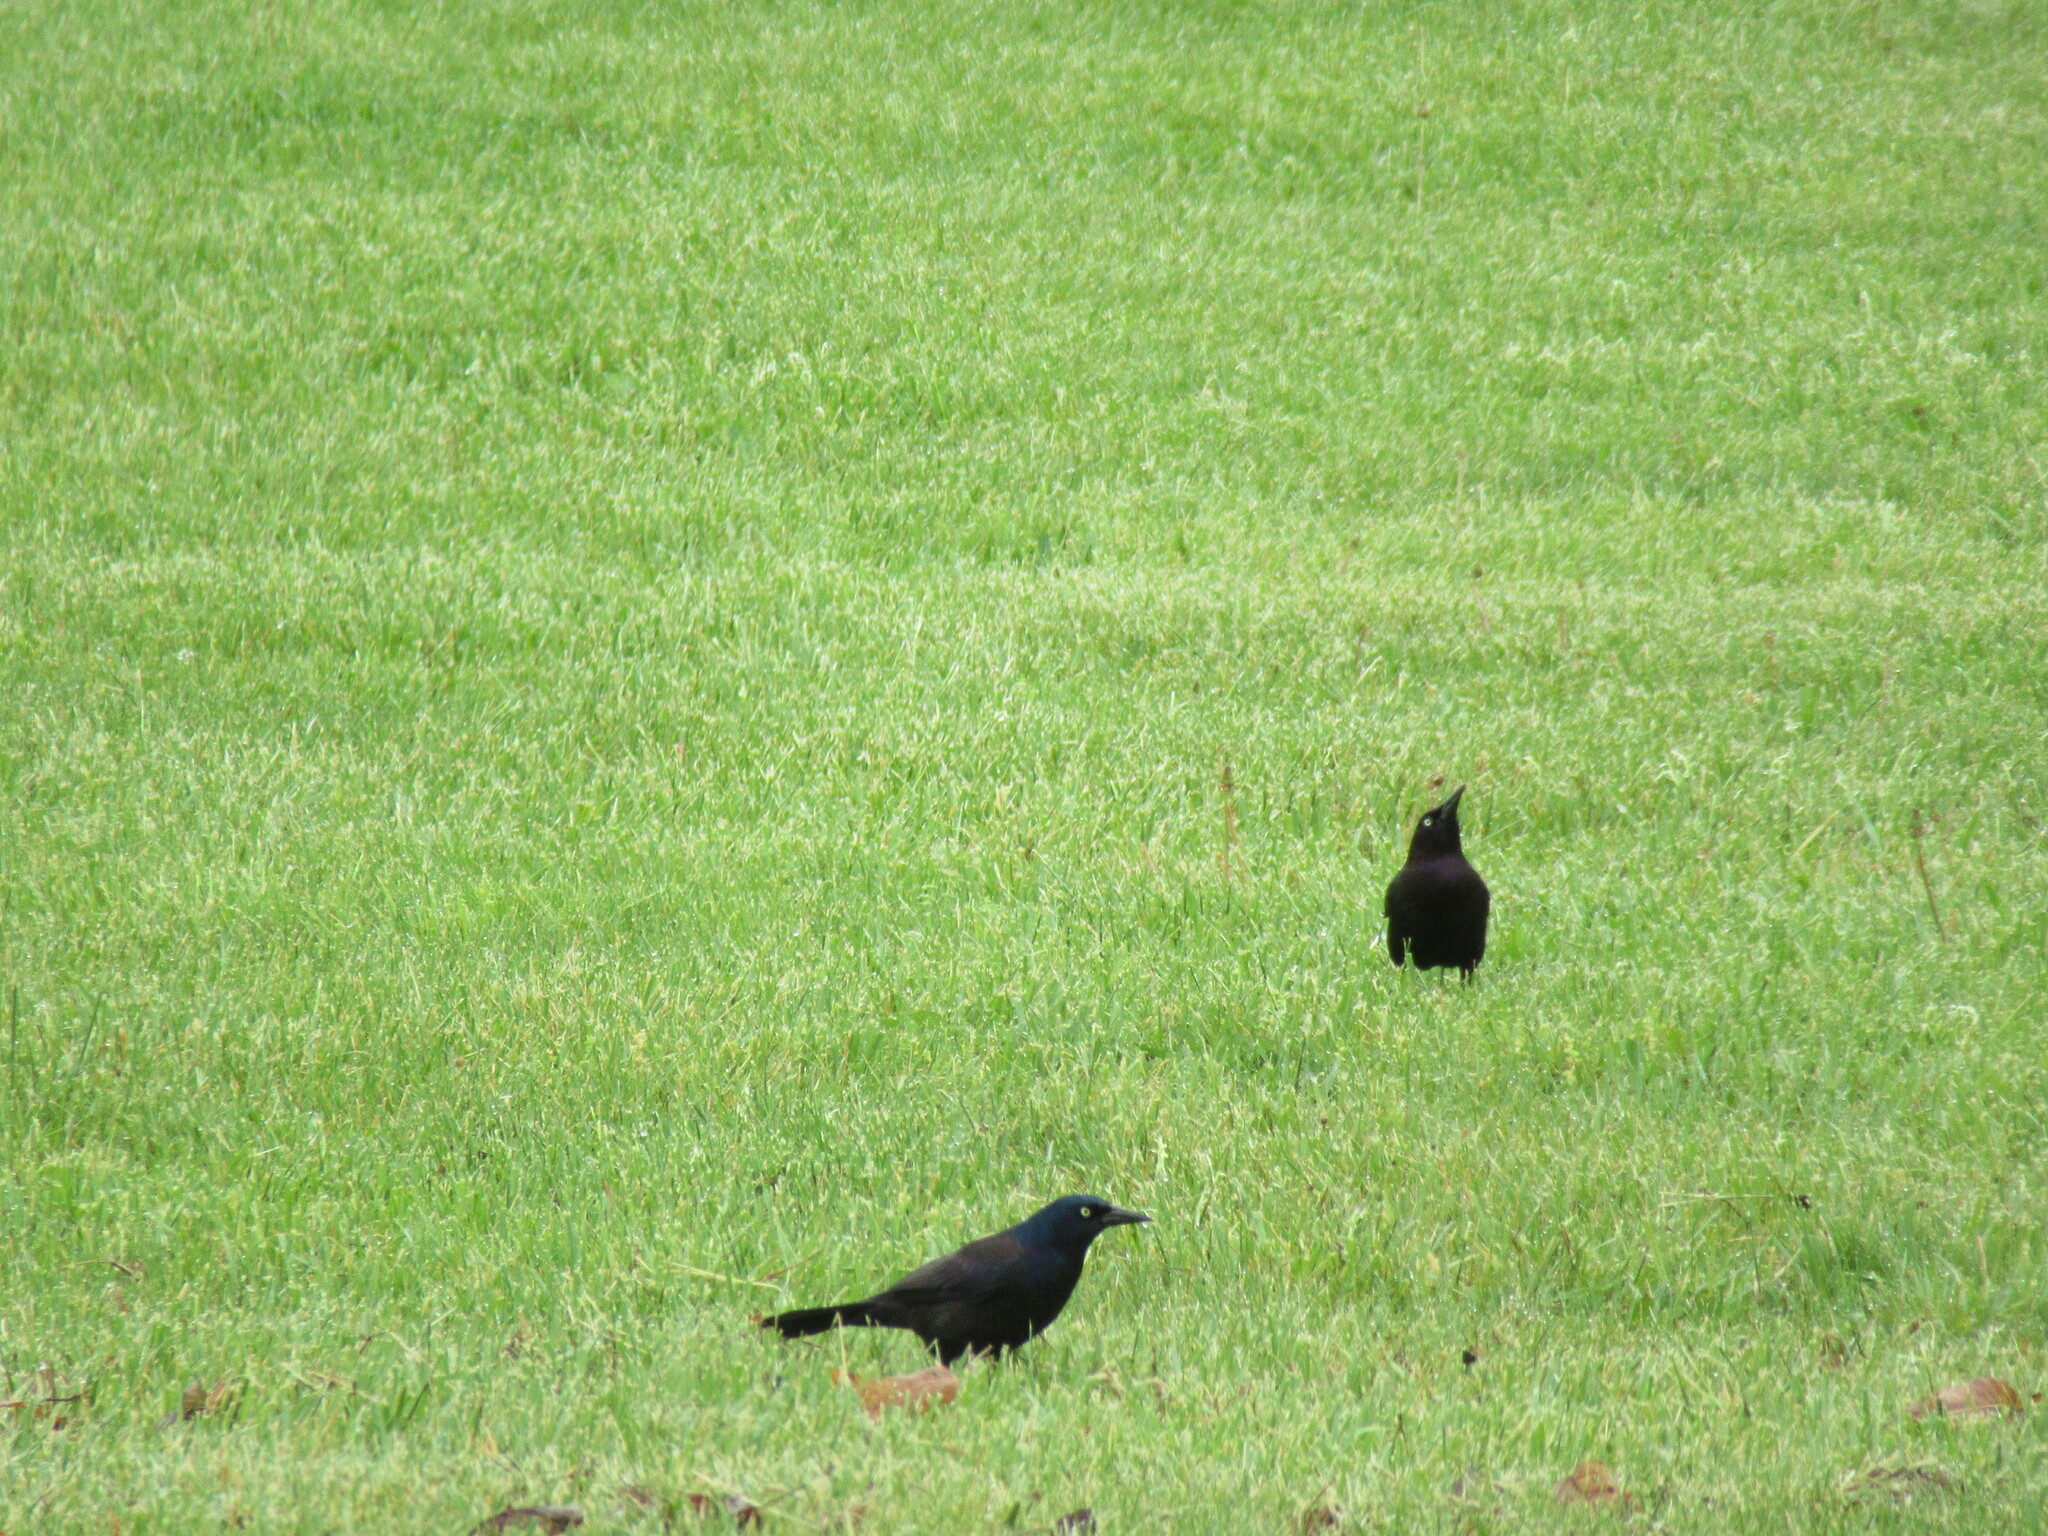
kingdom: Animalia
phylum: Chordata
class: Aves
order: Passeriformes
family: Icteridae
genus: Quiscalus
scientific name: Quiscalus quiscula
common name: Common grackle
